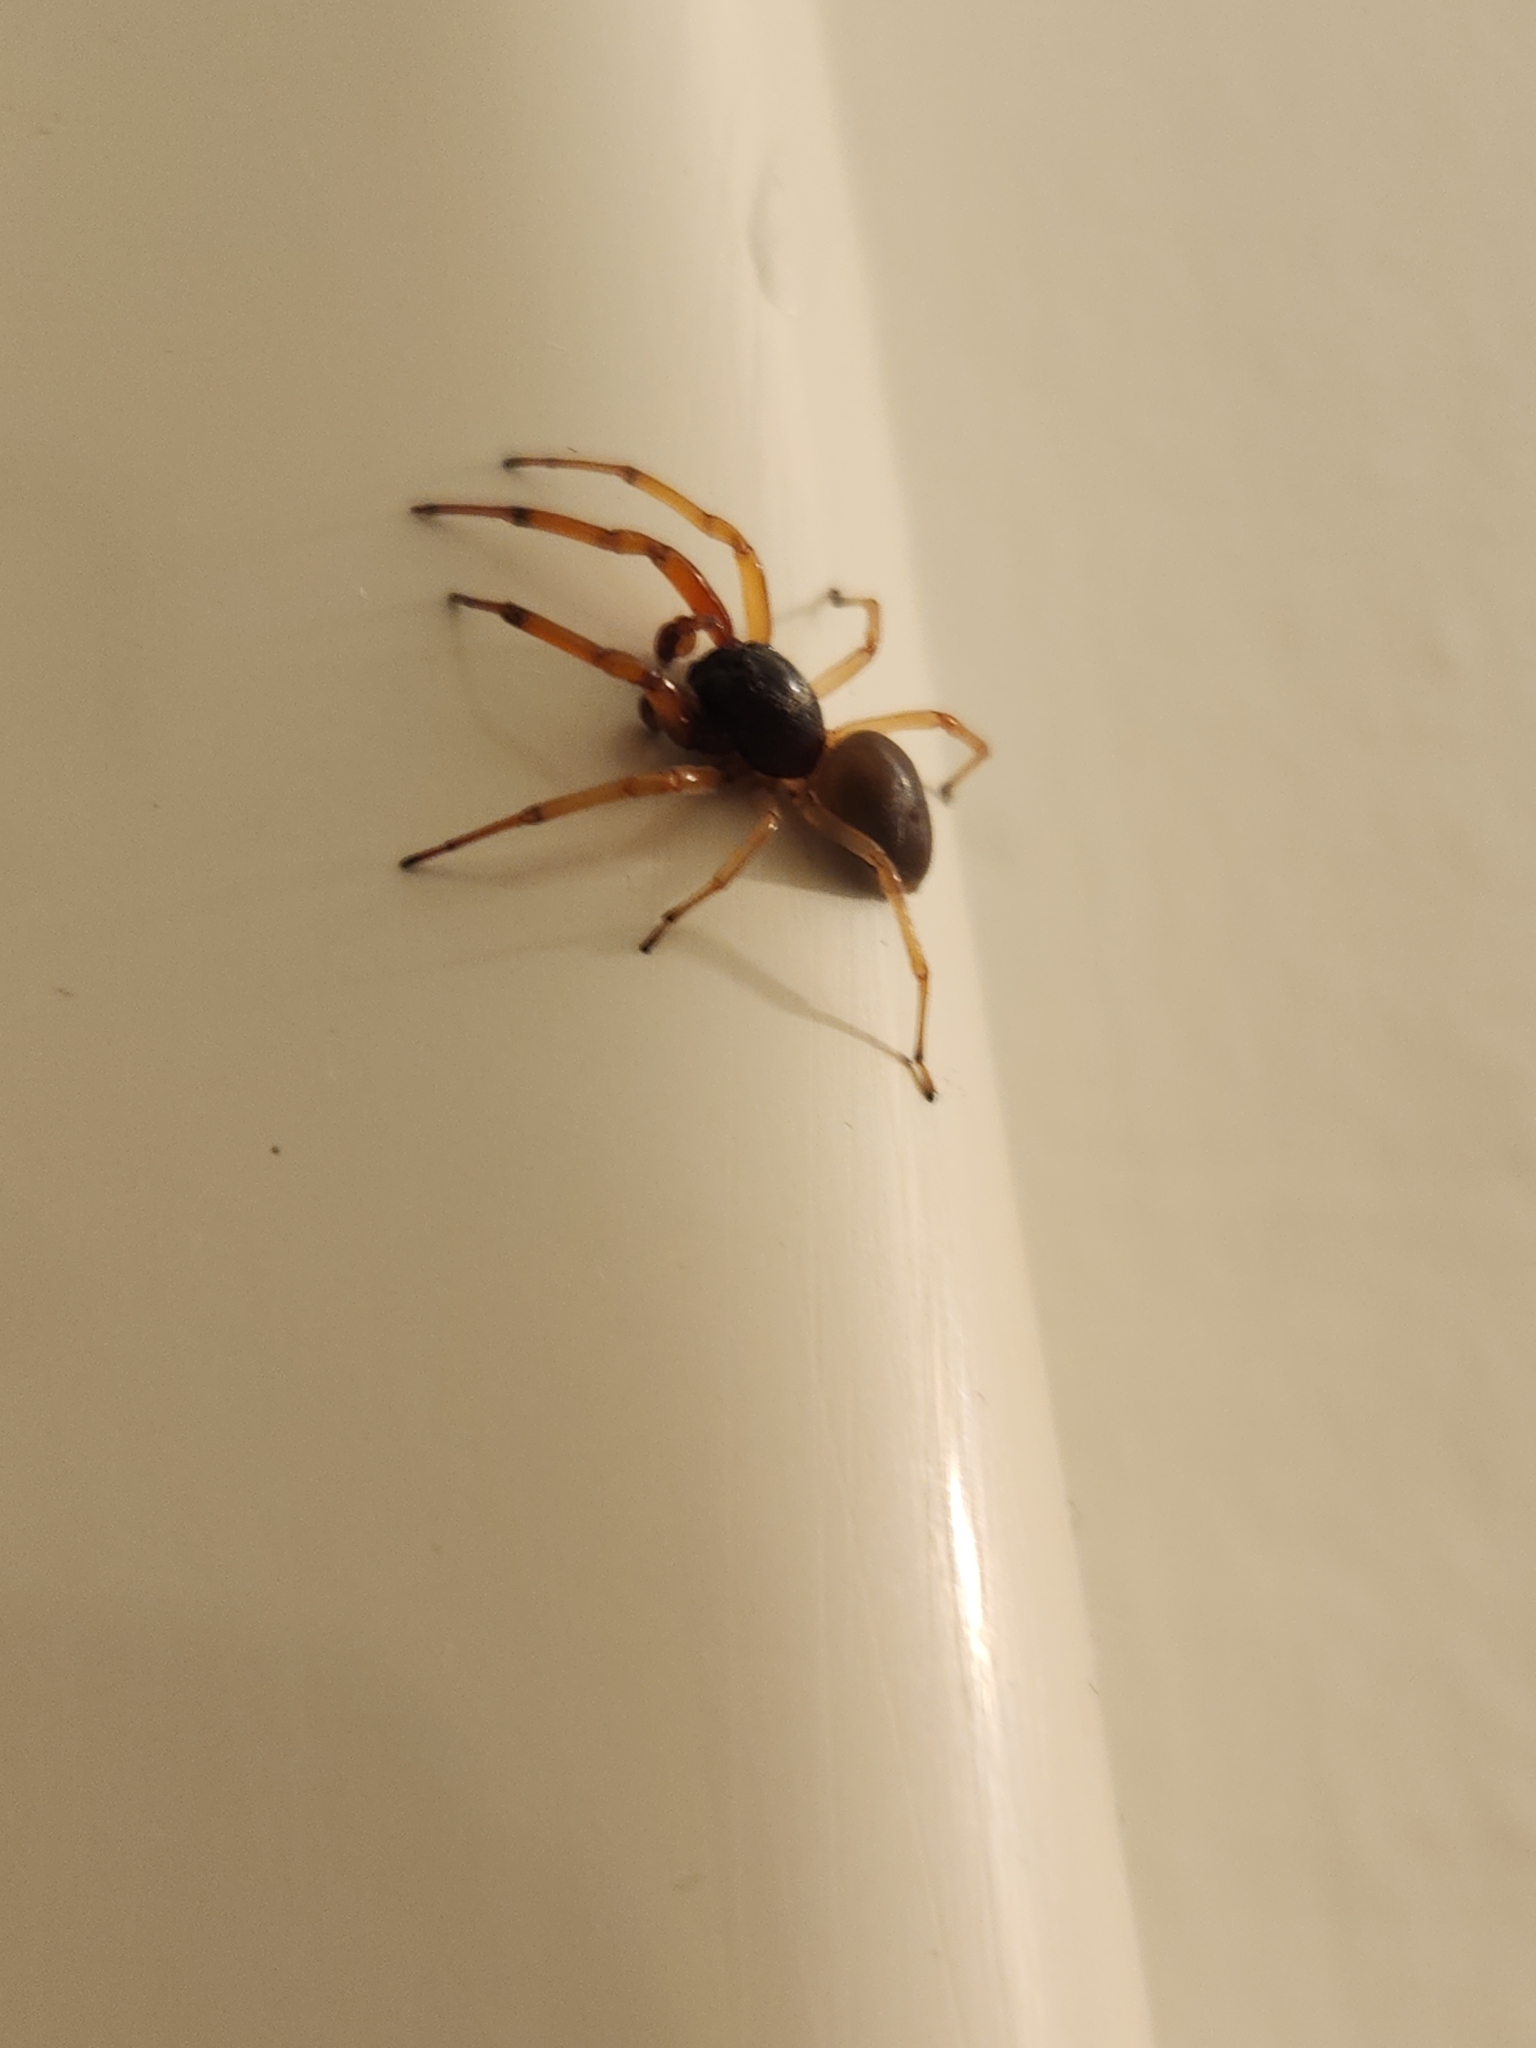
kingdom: Animalia
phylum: Arthropoda
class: Arachnida
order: Araneae
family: Trachelidae
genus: Trachelas
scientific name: Trachelas tranquillus
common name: Broad-faced sac spider
